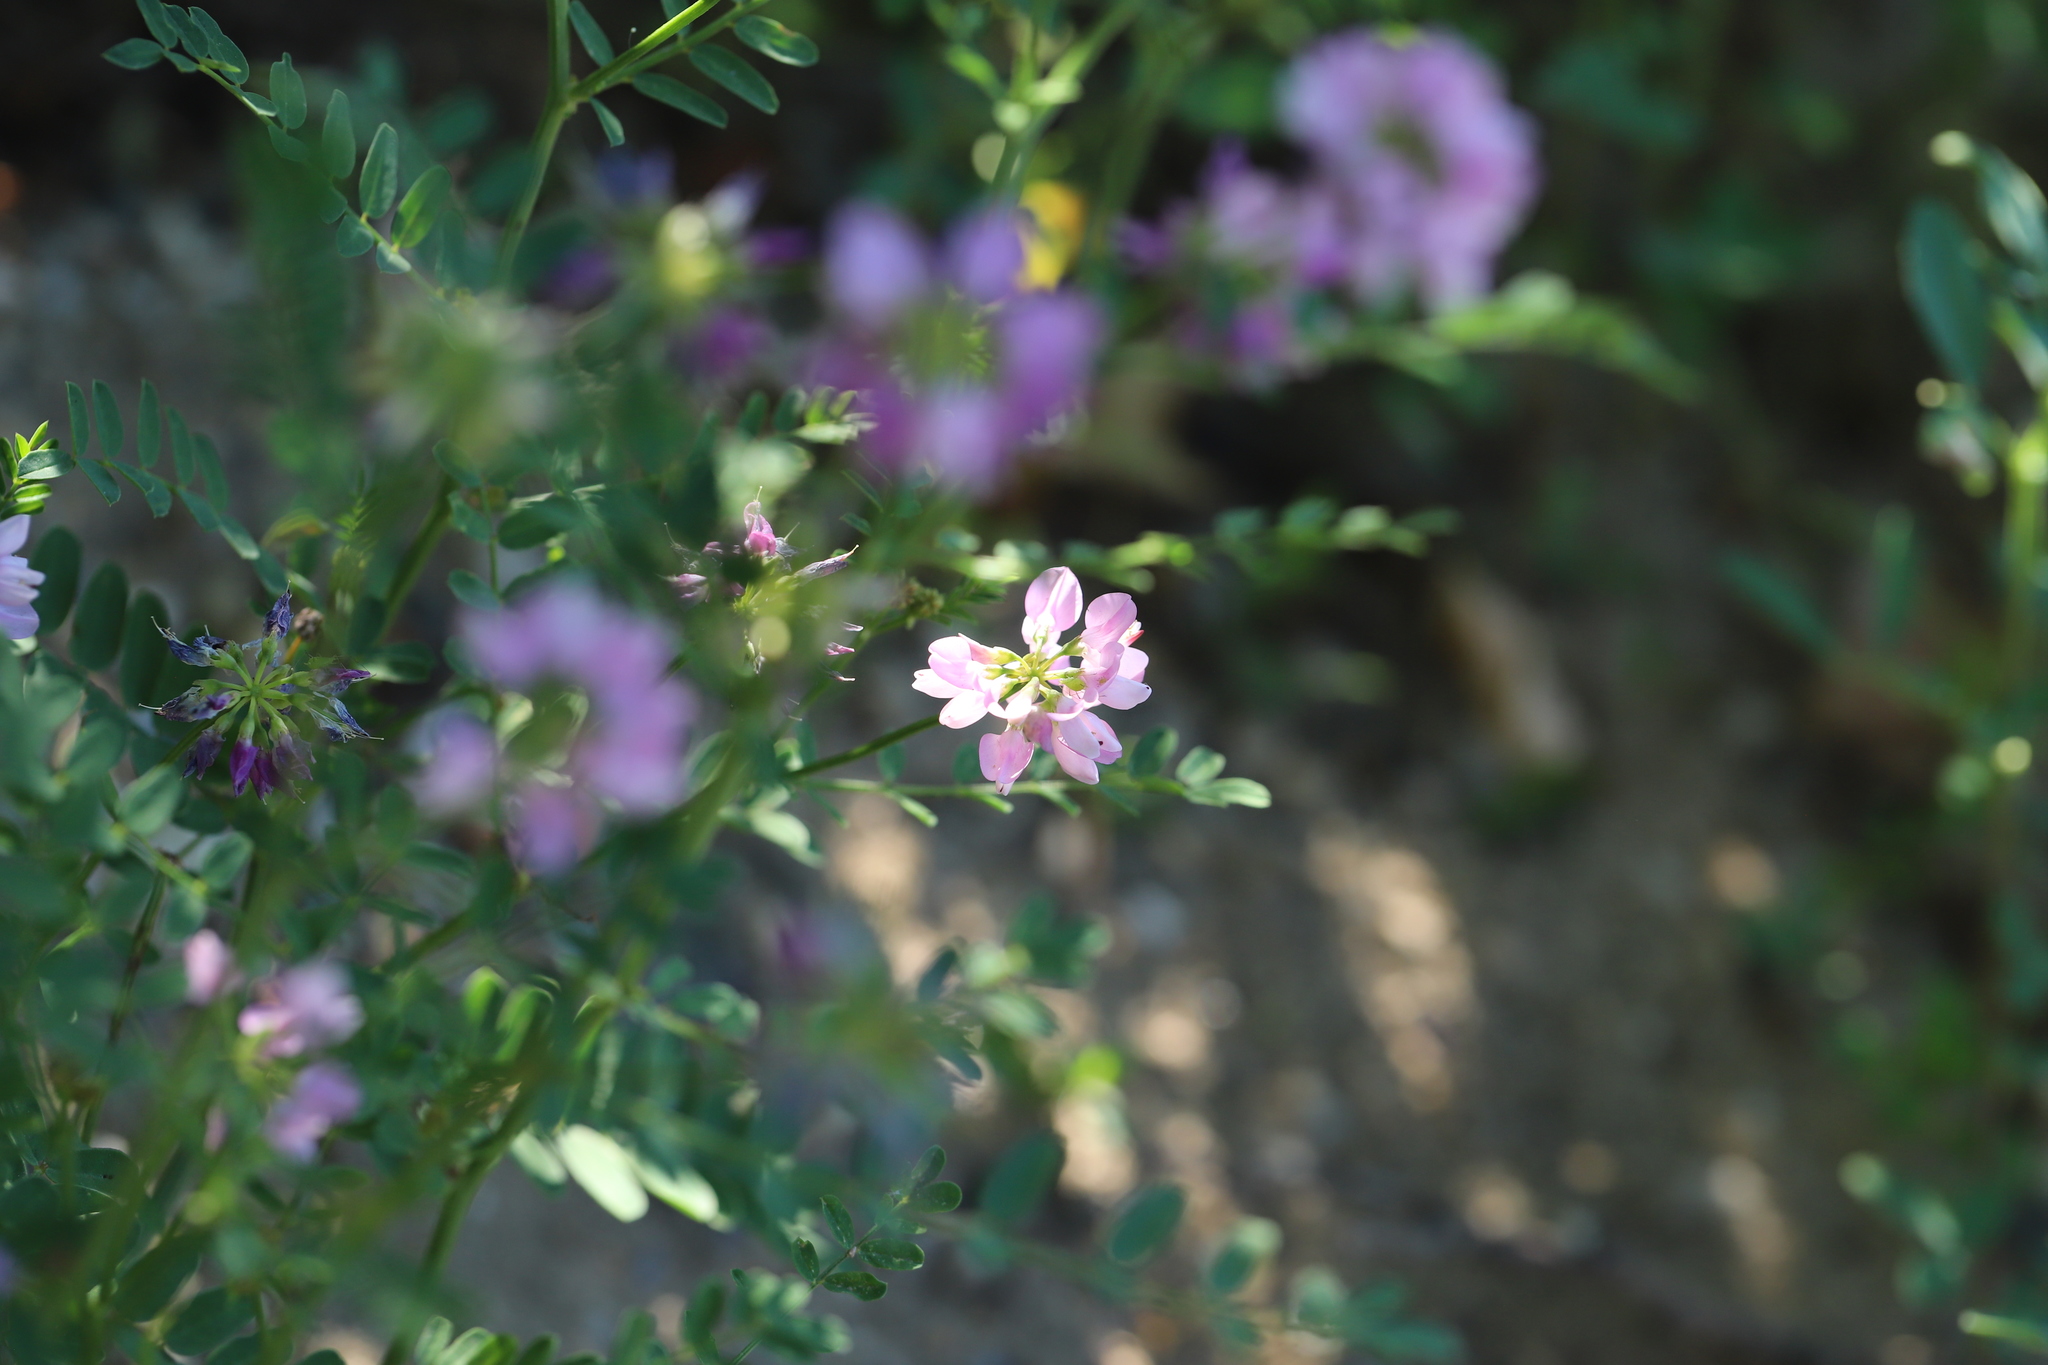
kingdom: Plantae
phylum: Tracheophyta
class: Magnoliopsida
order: Fabales
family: Fabaceae
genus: Coronilla
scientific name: Coronilla varia
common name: Crownvetch
